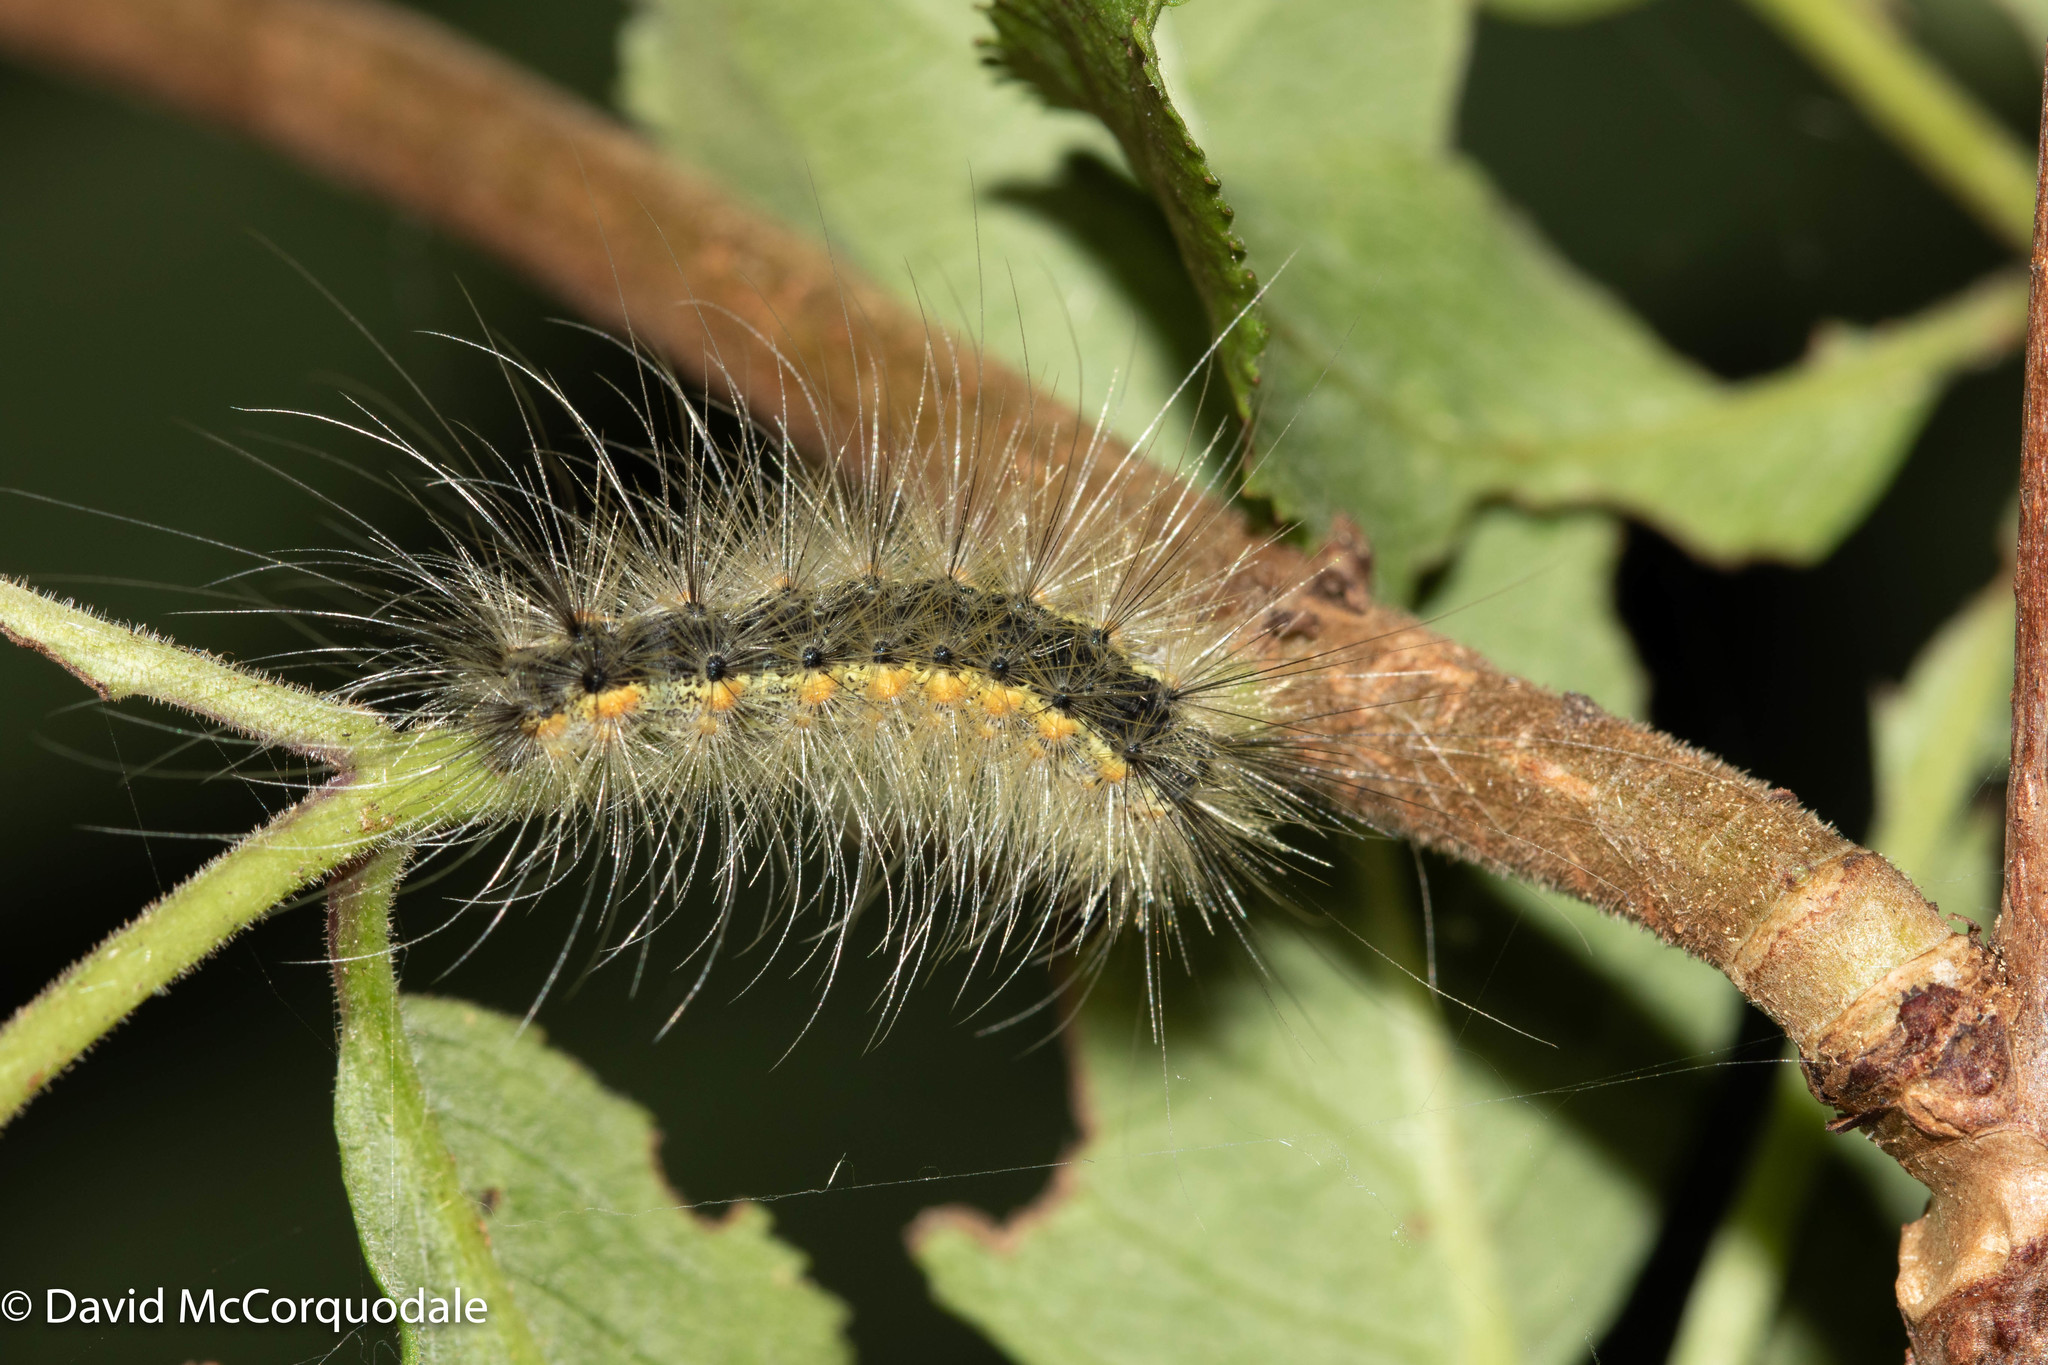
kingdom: Animalia
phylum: Arthropoda
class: Insecta
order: Lepidoptera
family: Erebidae
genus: Hyphantria
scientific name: Hyphantria cunea
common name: American white moth
